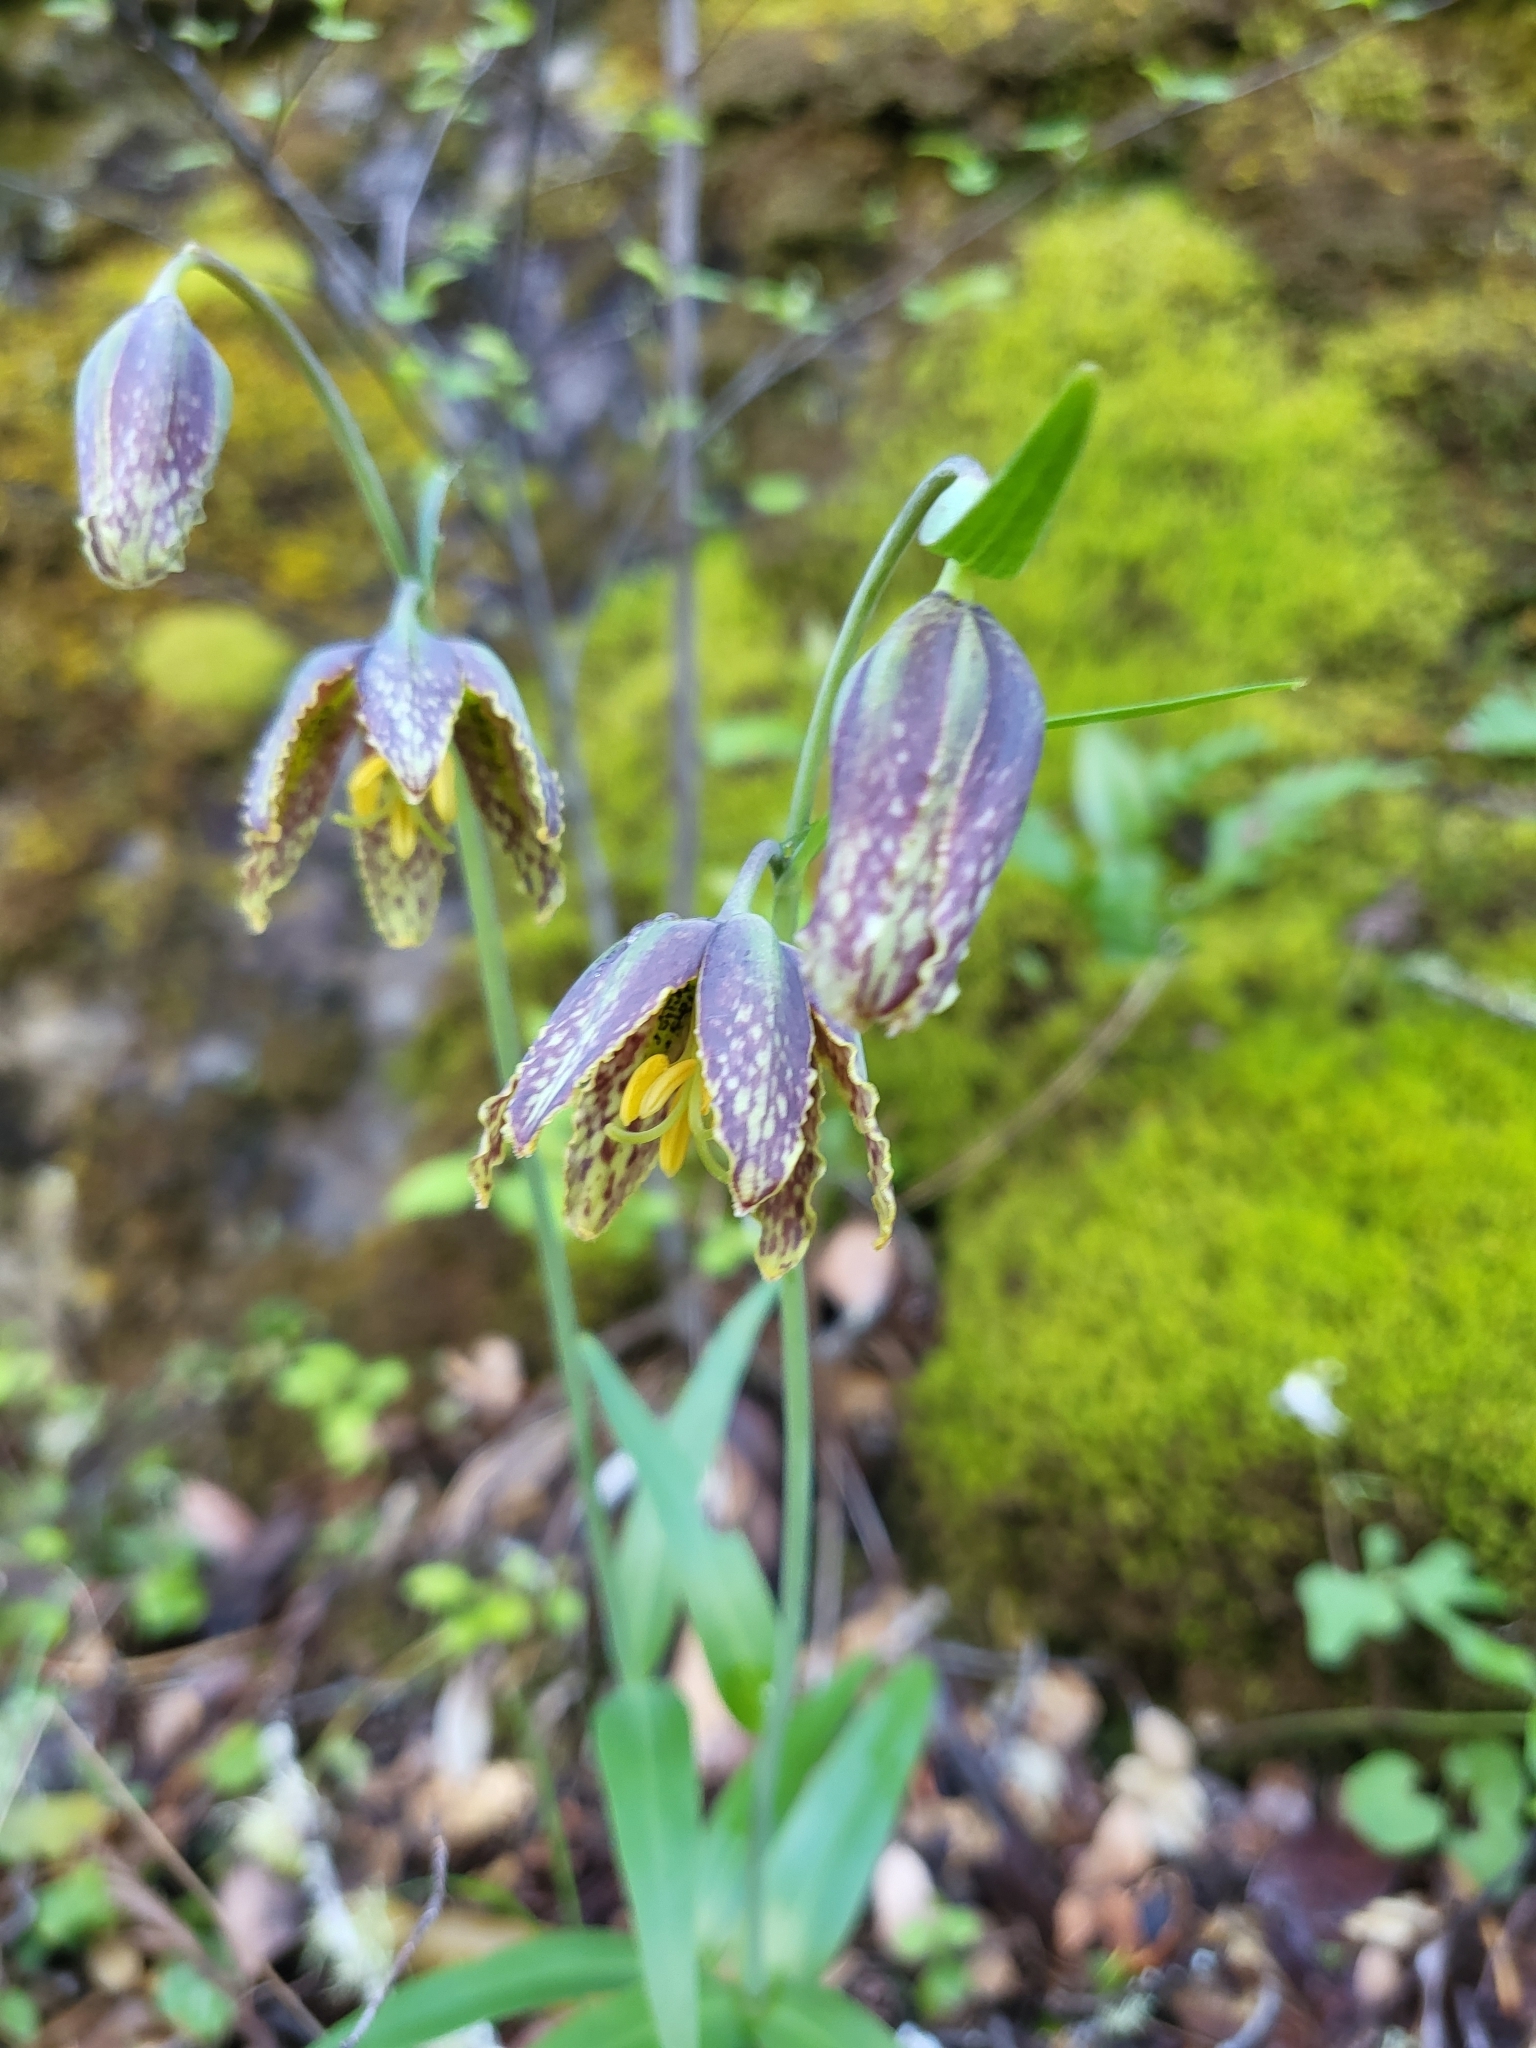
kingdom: Plantae
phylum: Tracheophyta
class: Liliopsida
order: Liliales
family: Liliaceae
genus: Fritillaria
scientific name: Fritillaria affinis
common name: Ojai fritillary
